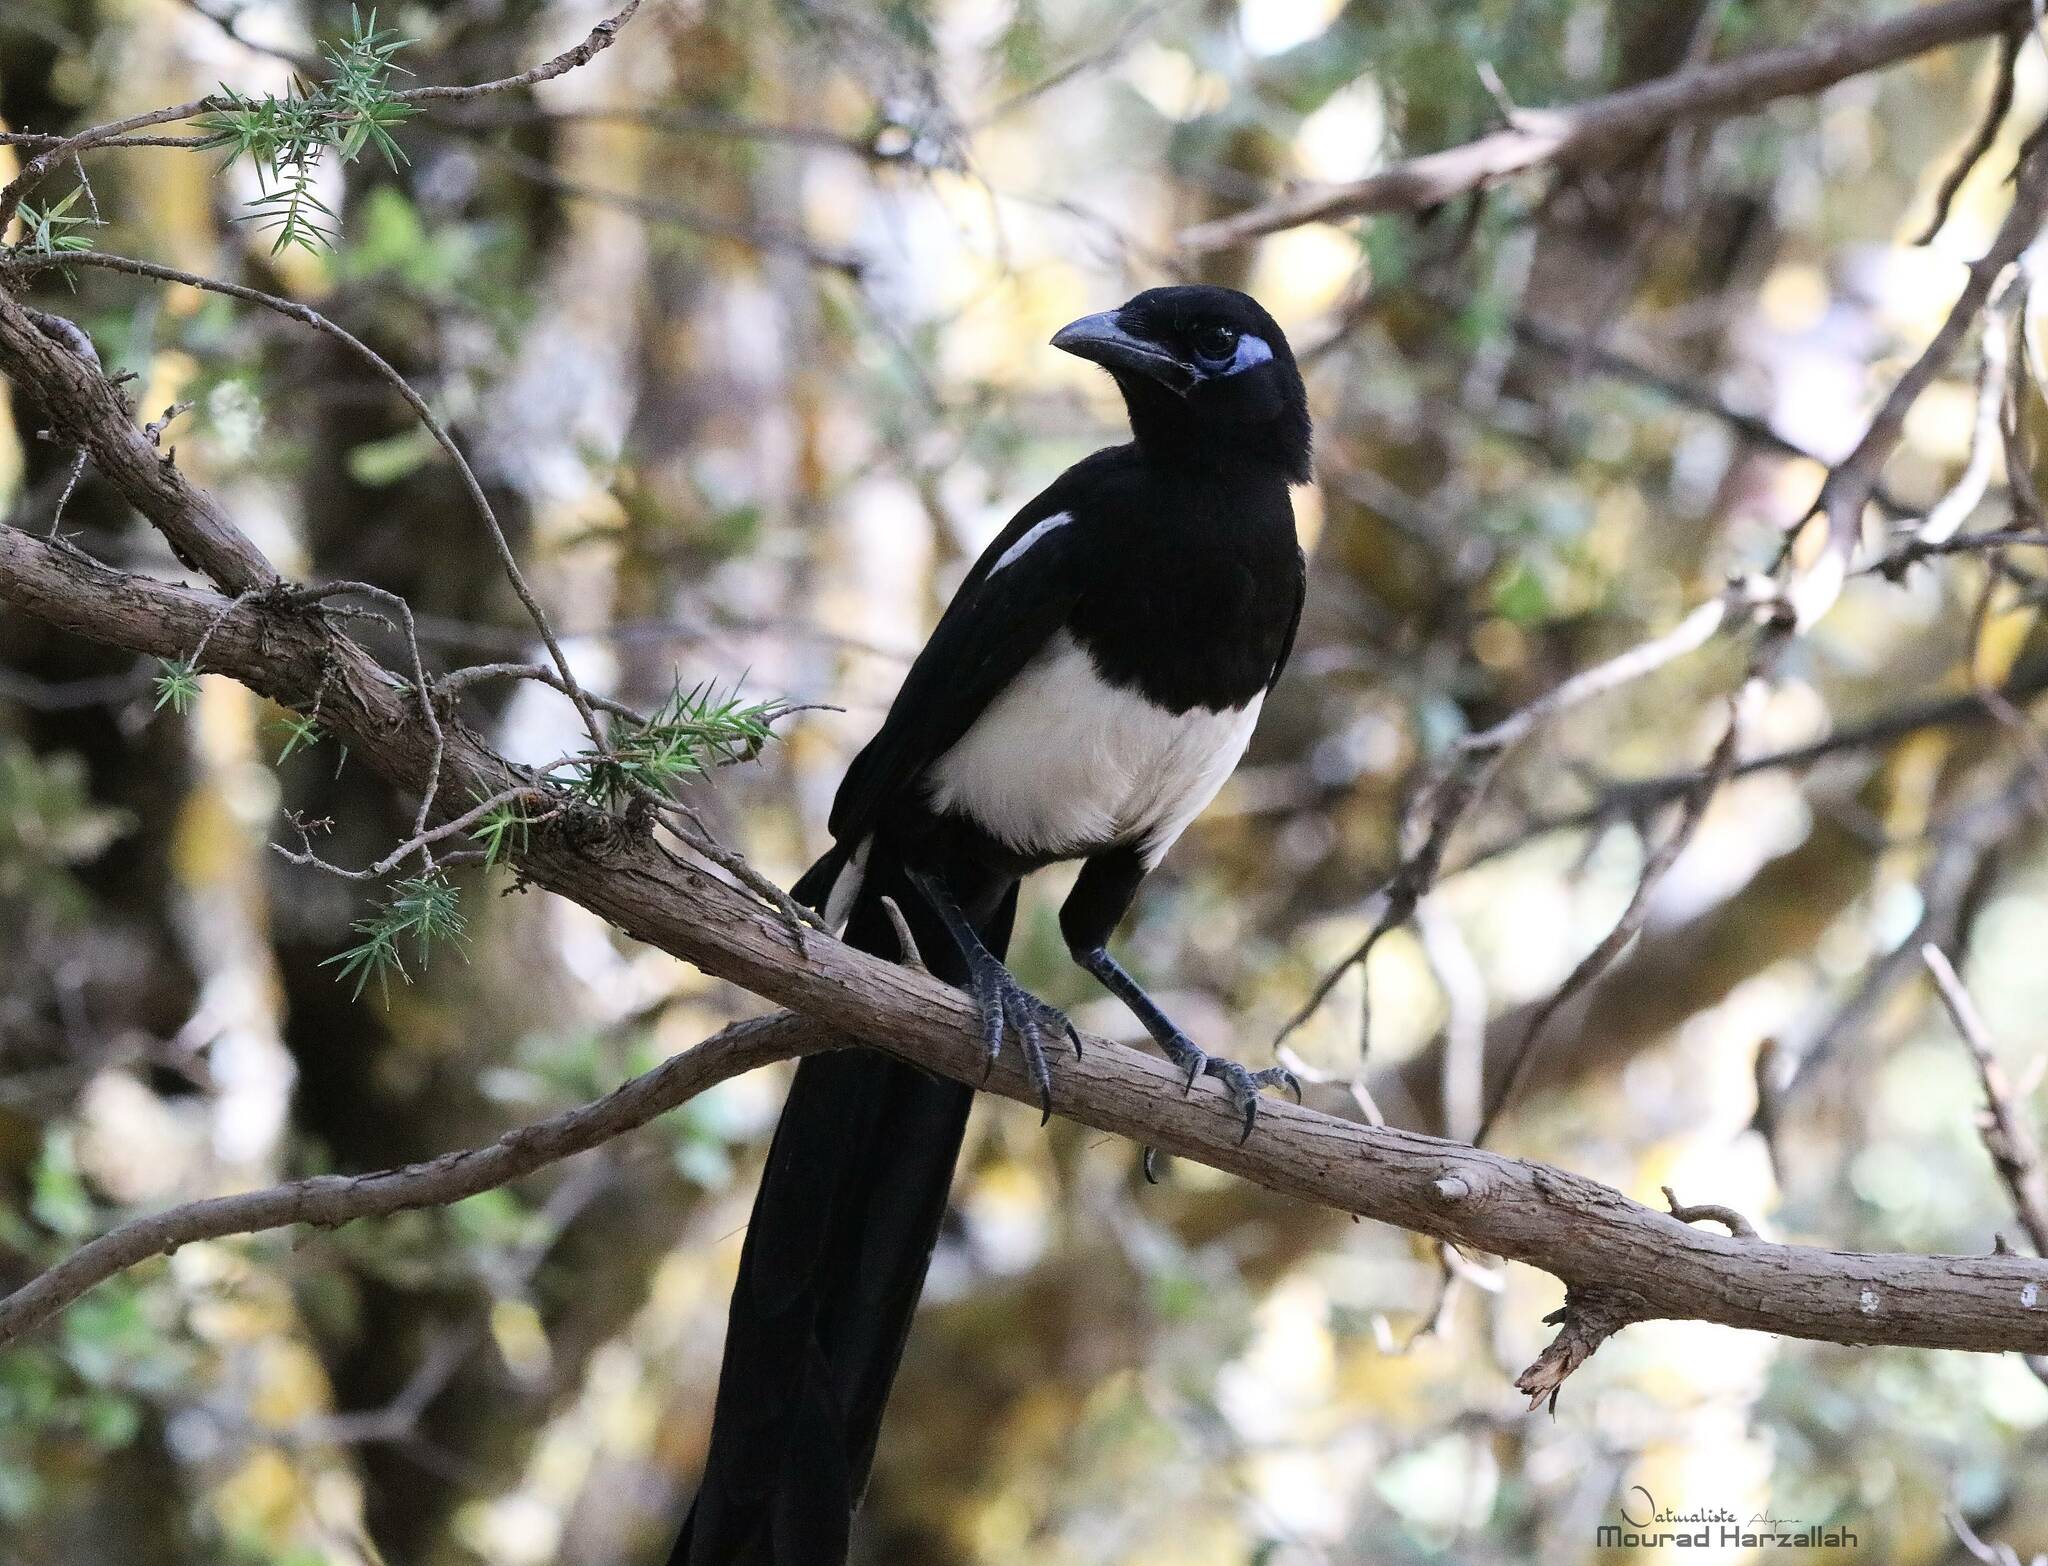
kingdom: Animalia
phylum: Chordata
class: Aves
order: Passeriformes
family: Corvidae
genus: Pica
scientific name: Pica mauritanica
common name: Maghreb magpie
